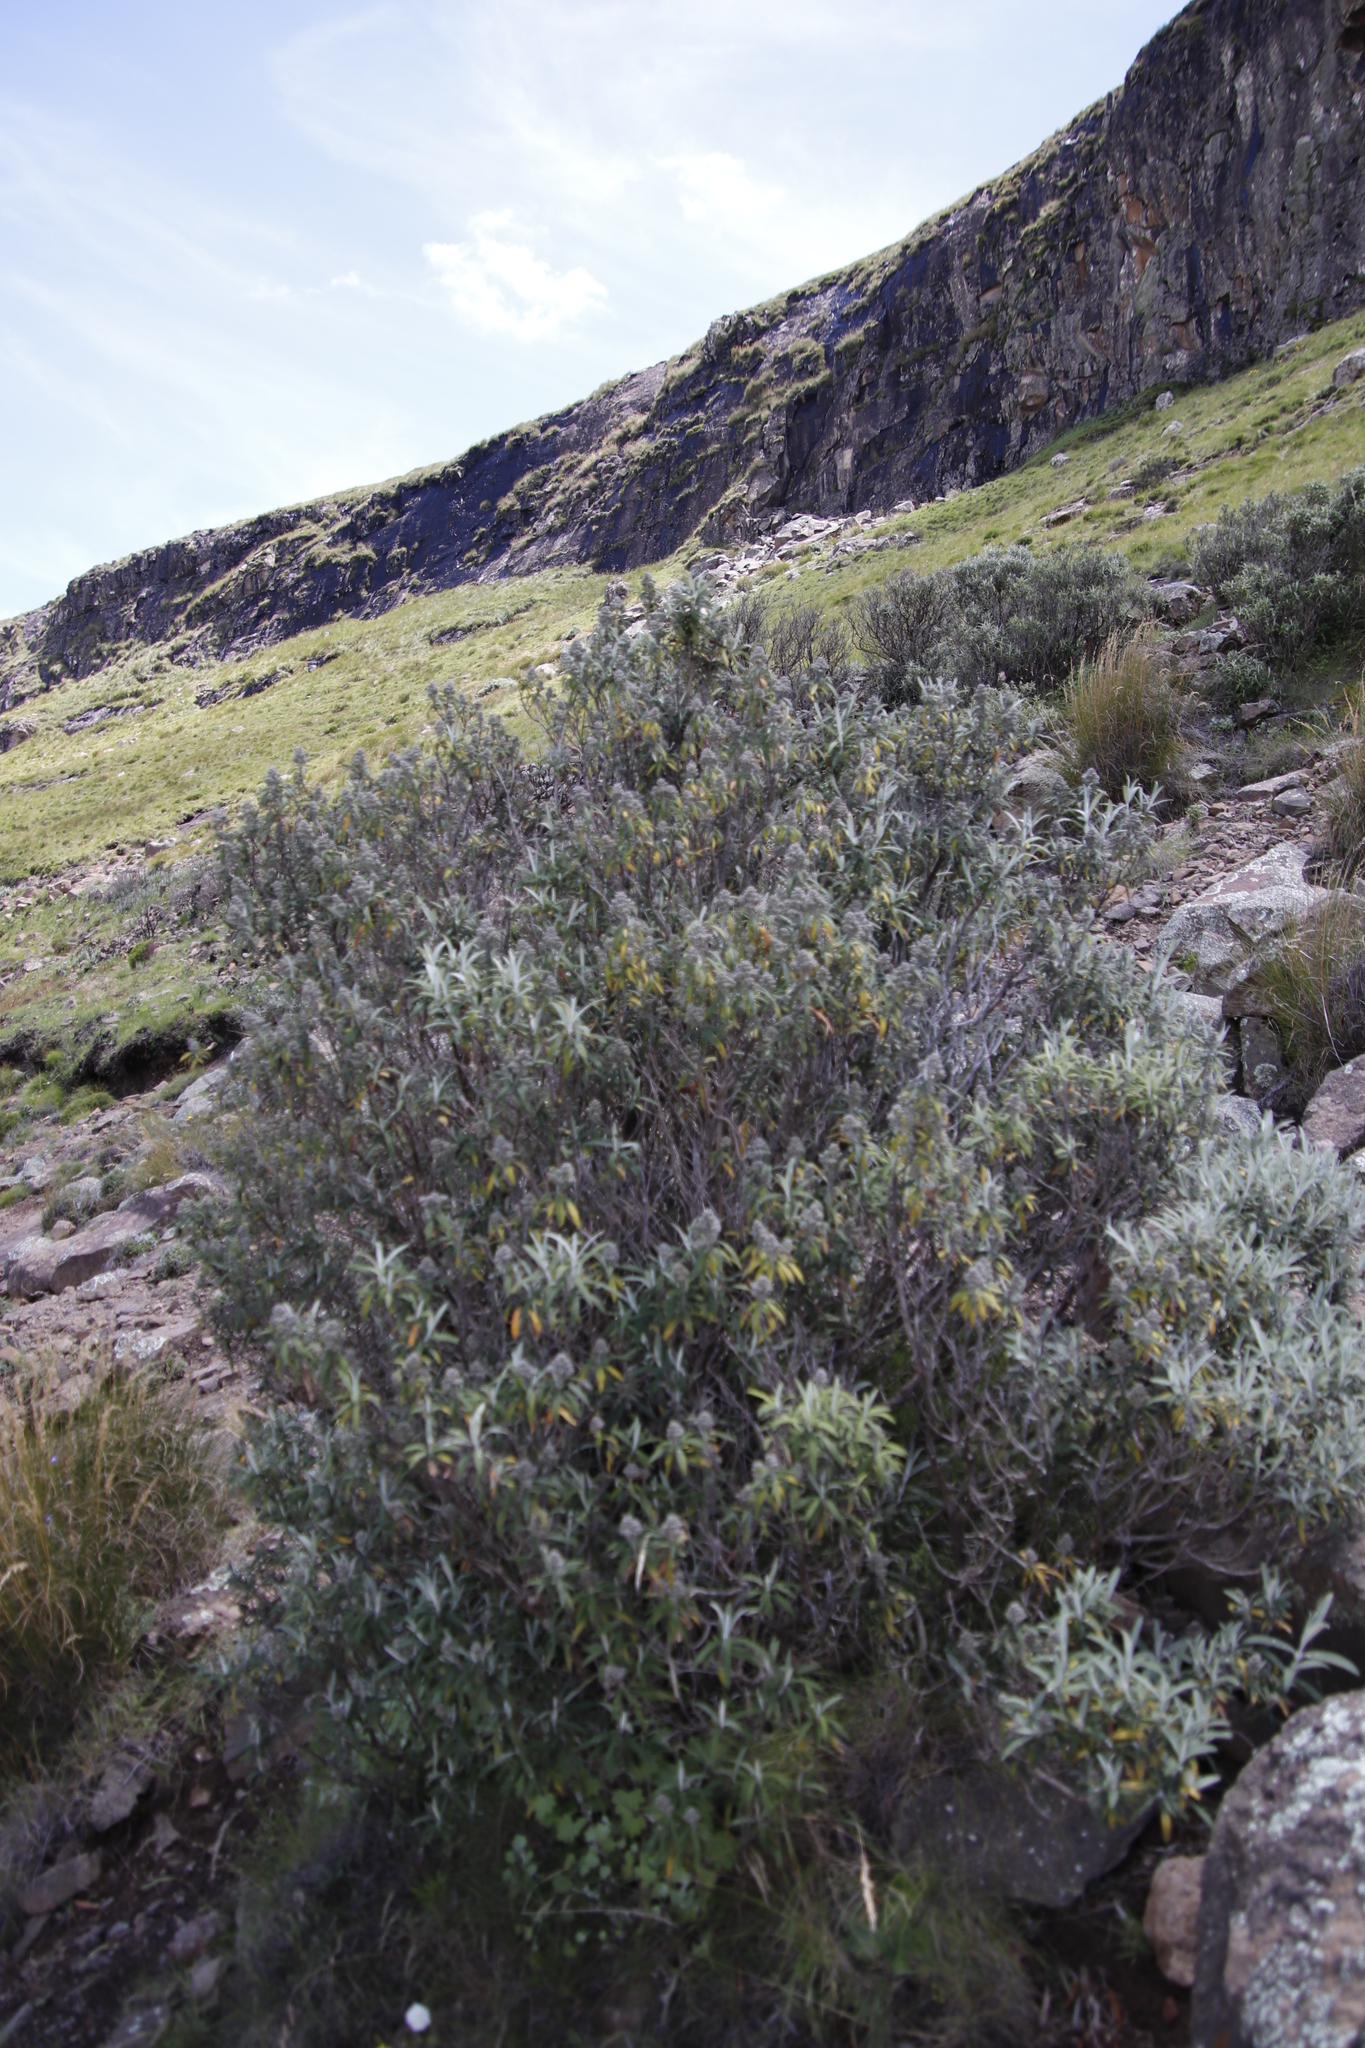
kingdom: Plantae
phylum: Tracheophyta
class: Magnoliopsida
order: Lamiales
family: Scrophulariaceae
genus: Buddleja
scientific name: Buddleja loricata
